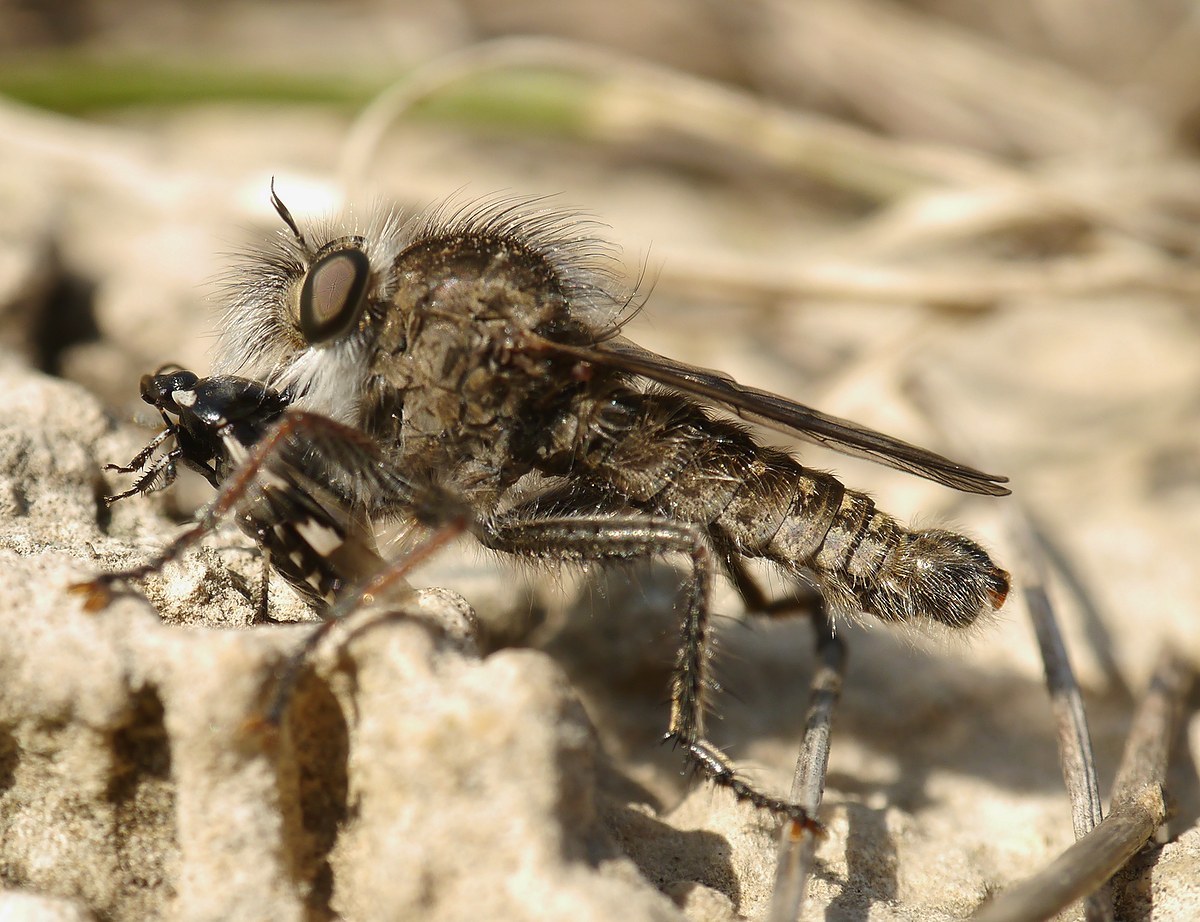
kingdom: Animalia
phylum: Arthropoda
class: Insecta
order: Diptera
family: Asilidae
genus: Erax
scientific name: Erax crassicauda
